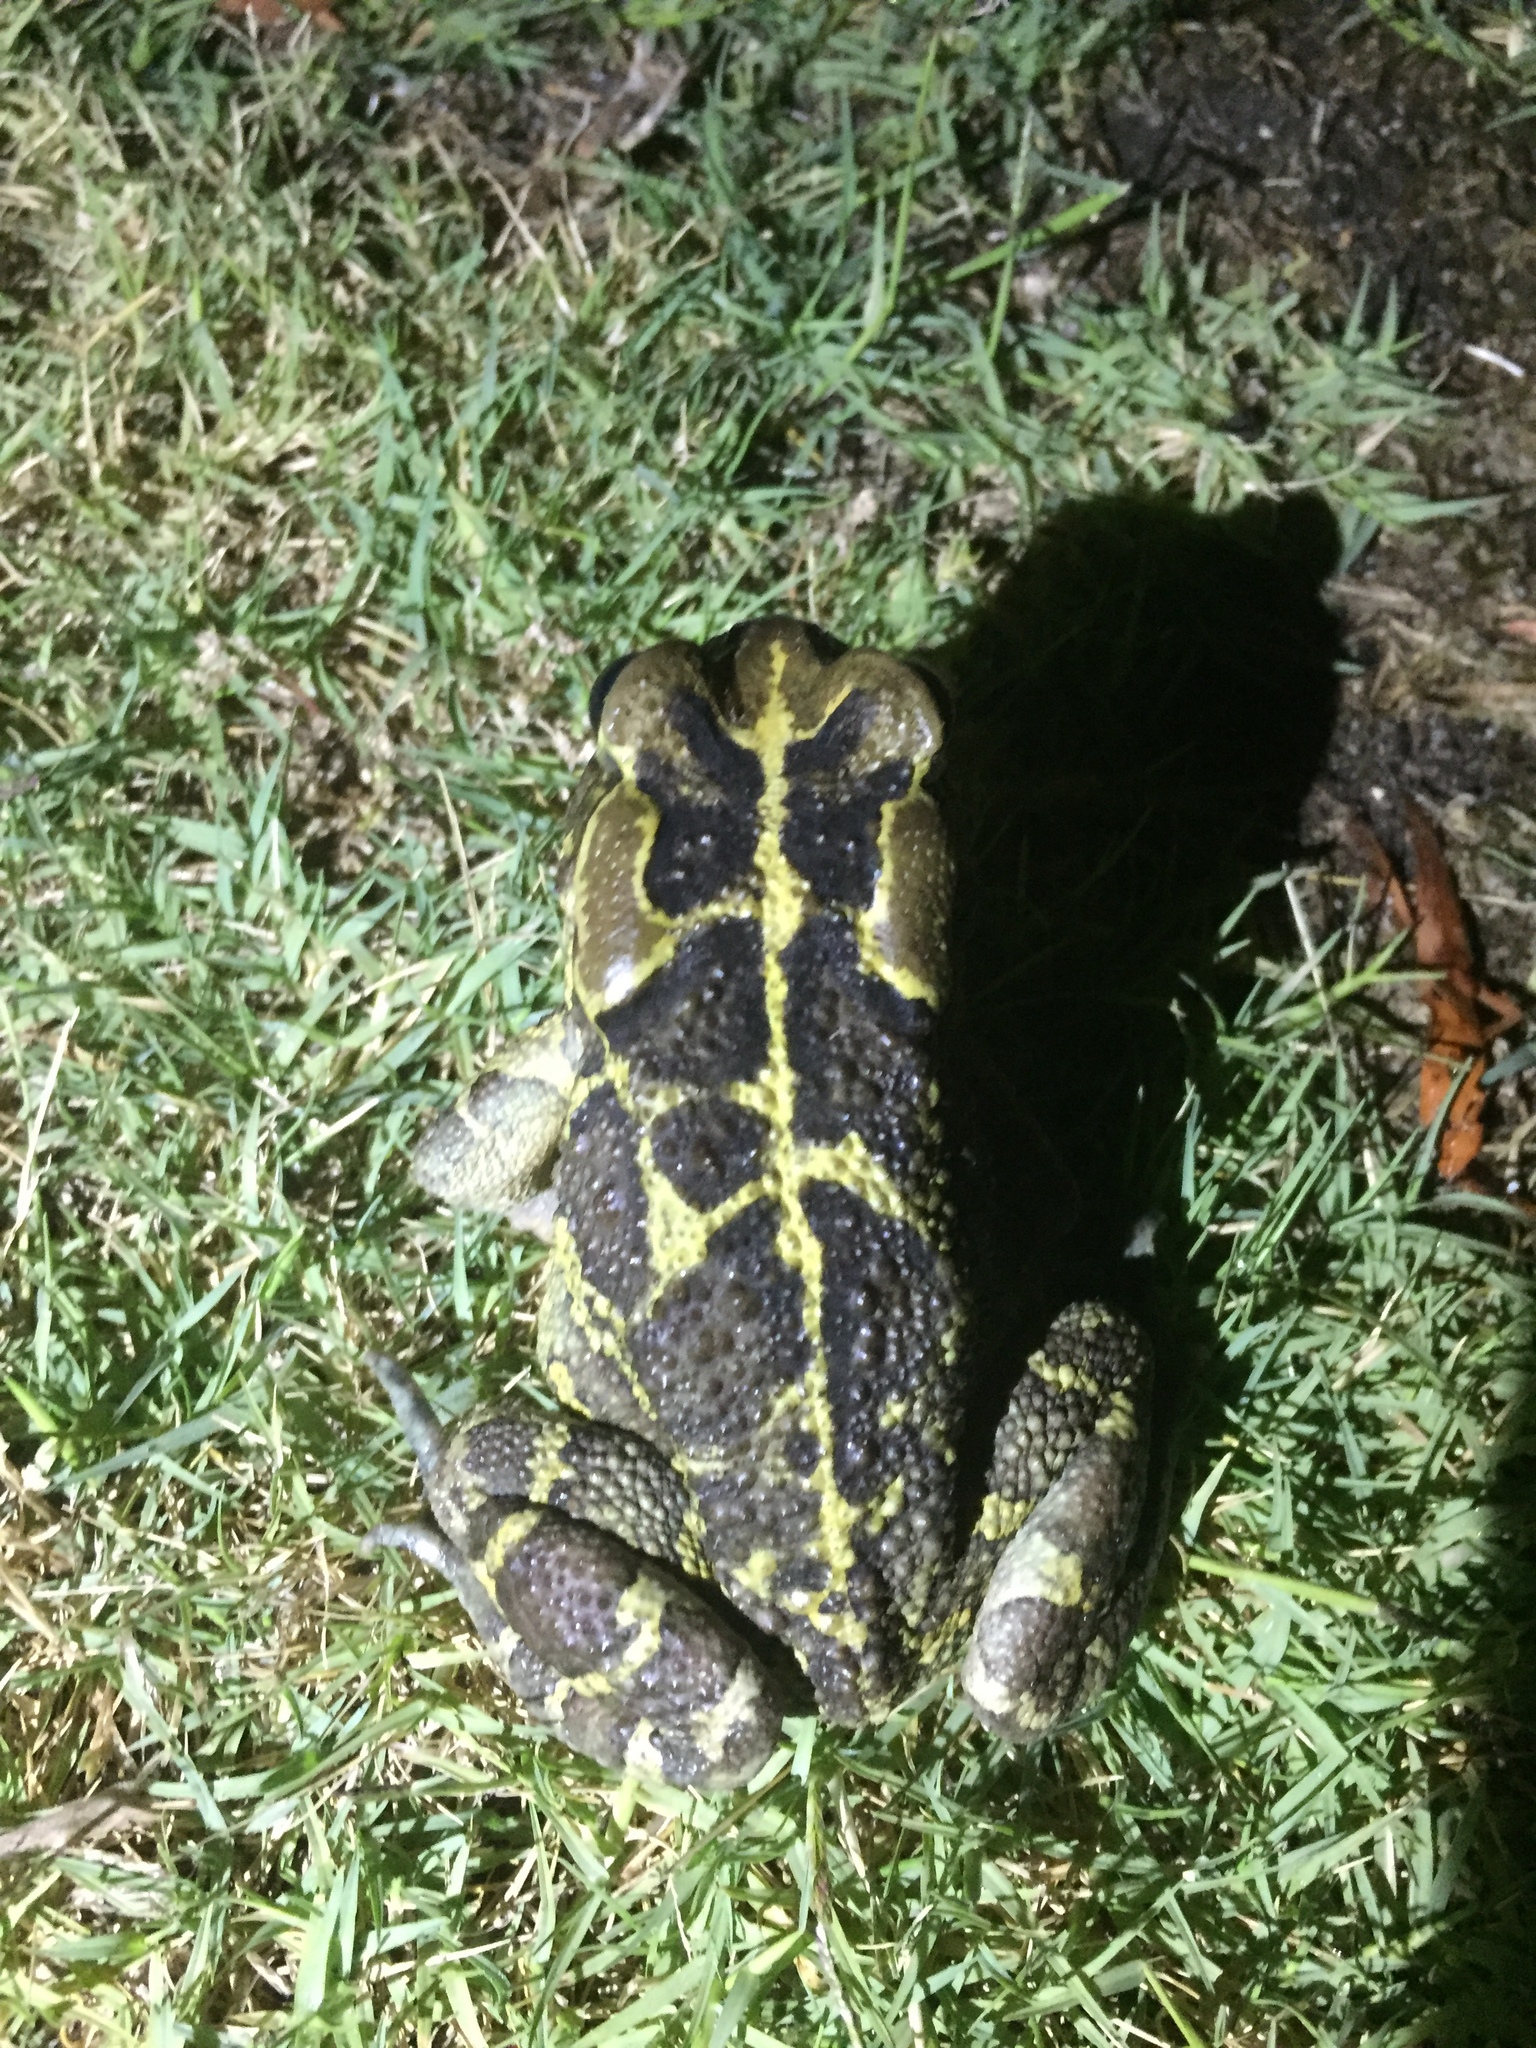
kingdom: Animalia
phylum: Chordata
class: Amphibia
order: Anura
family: Bufonidae
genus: Sclerophrys
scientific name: Sclerophrys pantherina
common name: Panther toad
